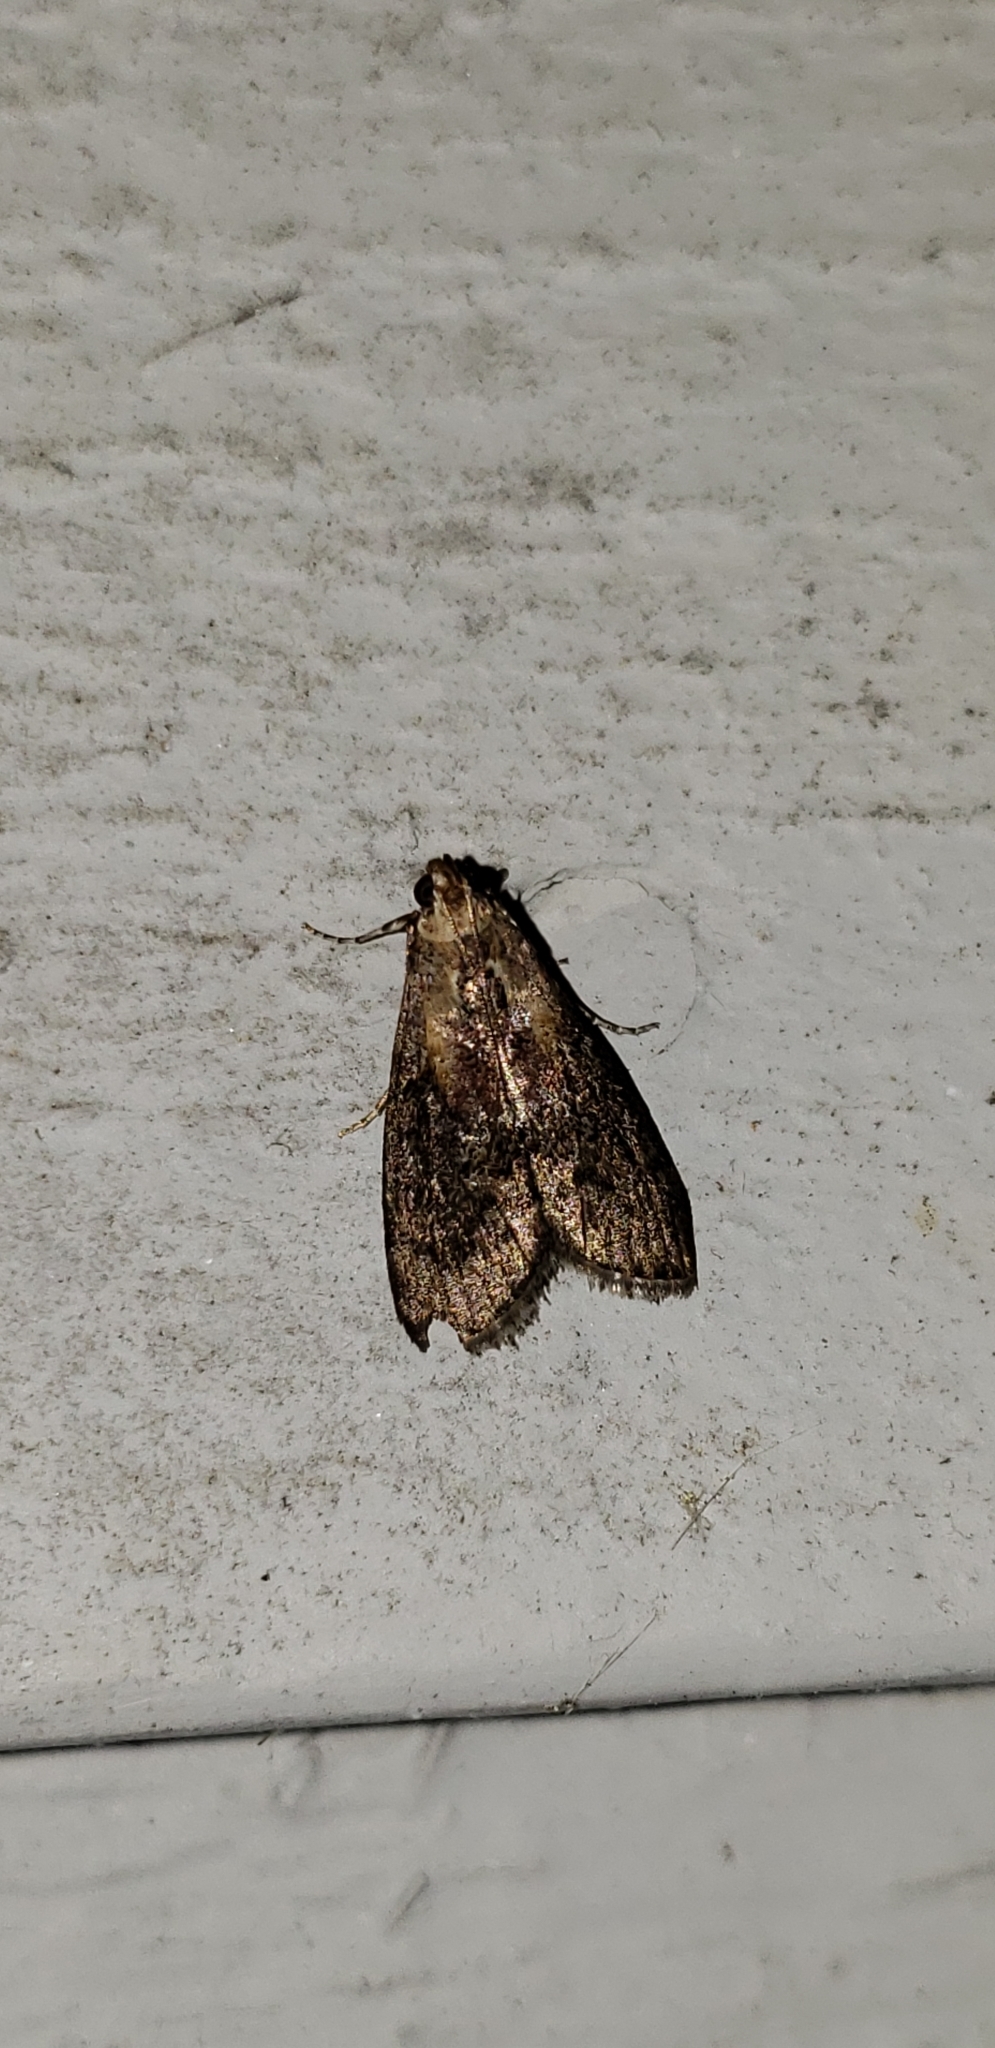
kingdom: Animalia
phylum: Arthropoda
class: Insecta
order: Lepidoptera
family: Pyralidae
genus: Pococera
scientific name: Pococera expandens
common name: Striped oak webworm moth
